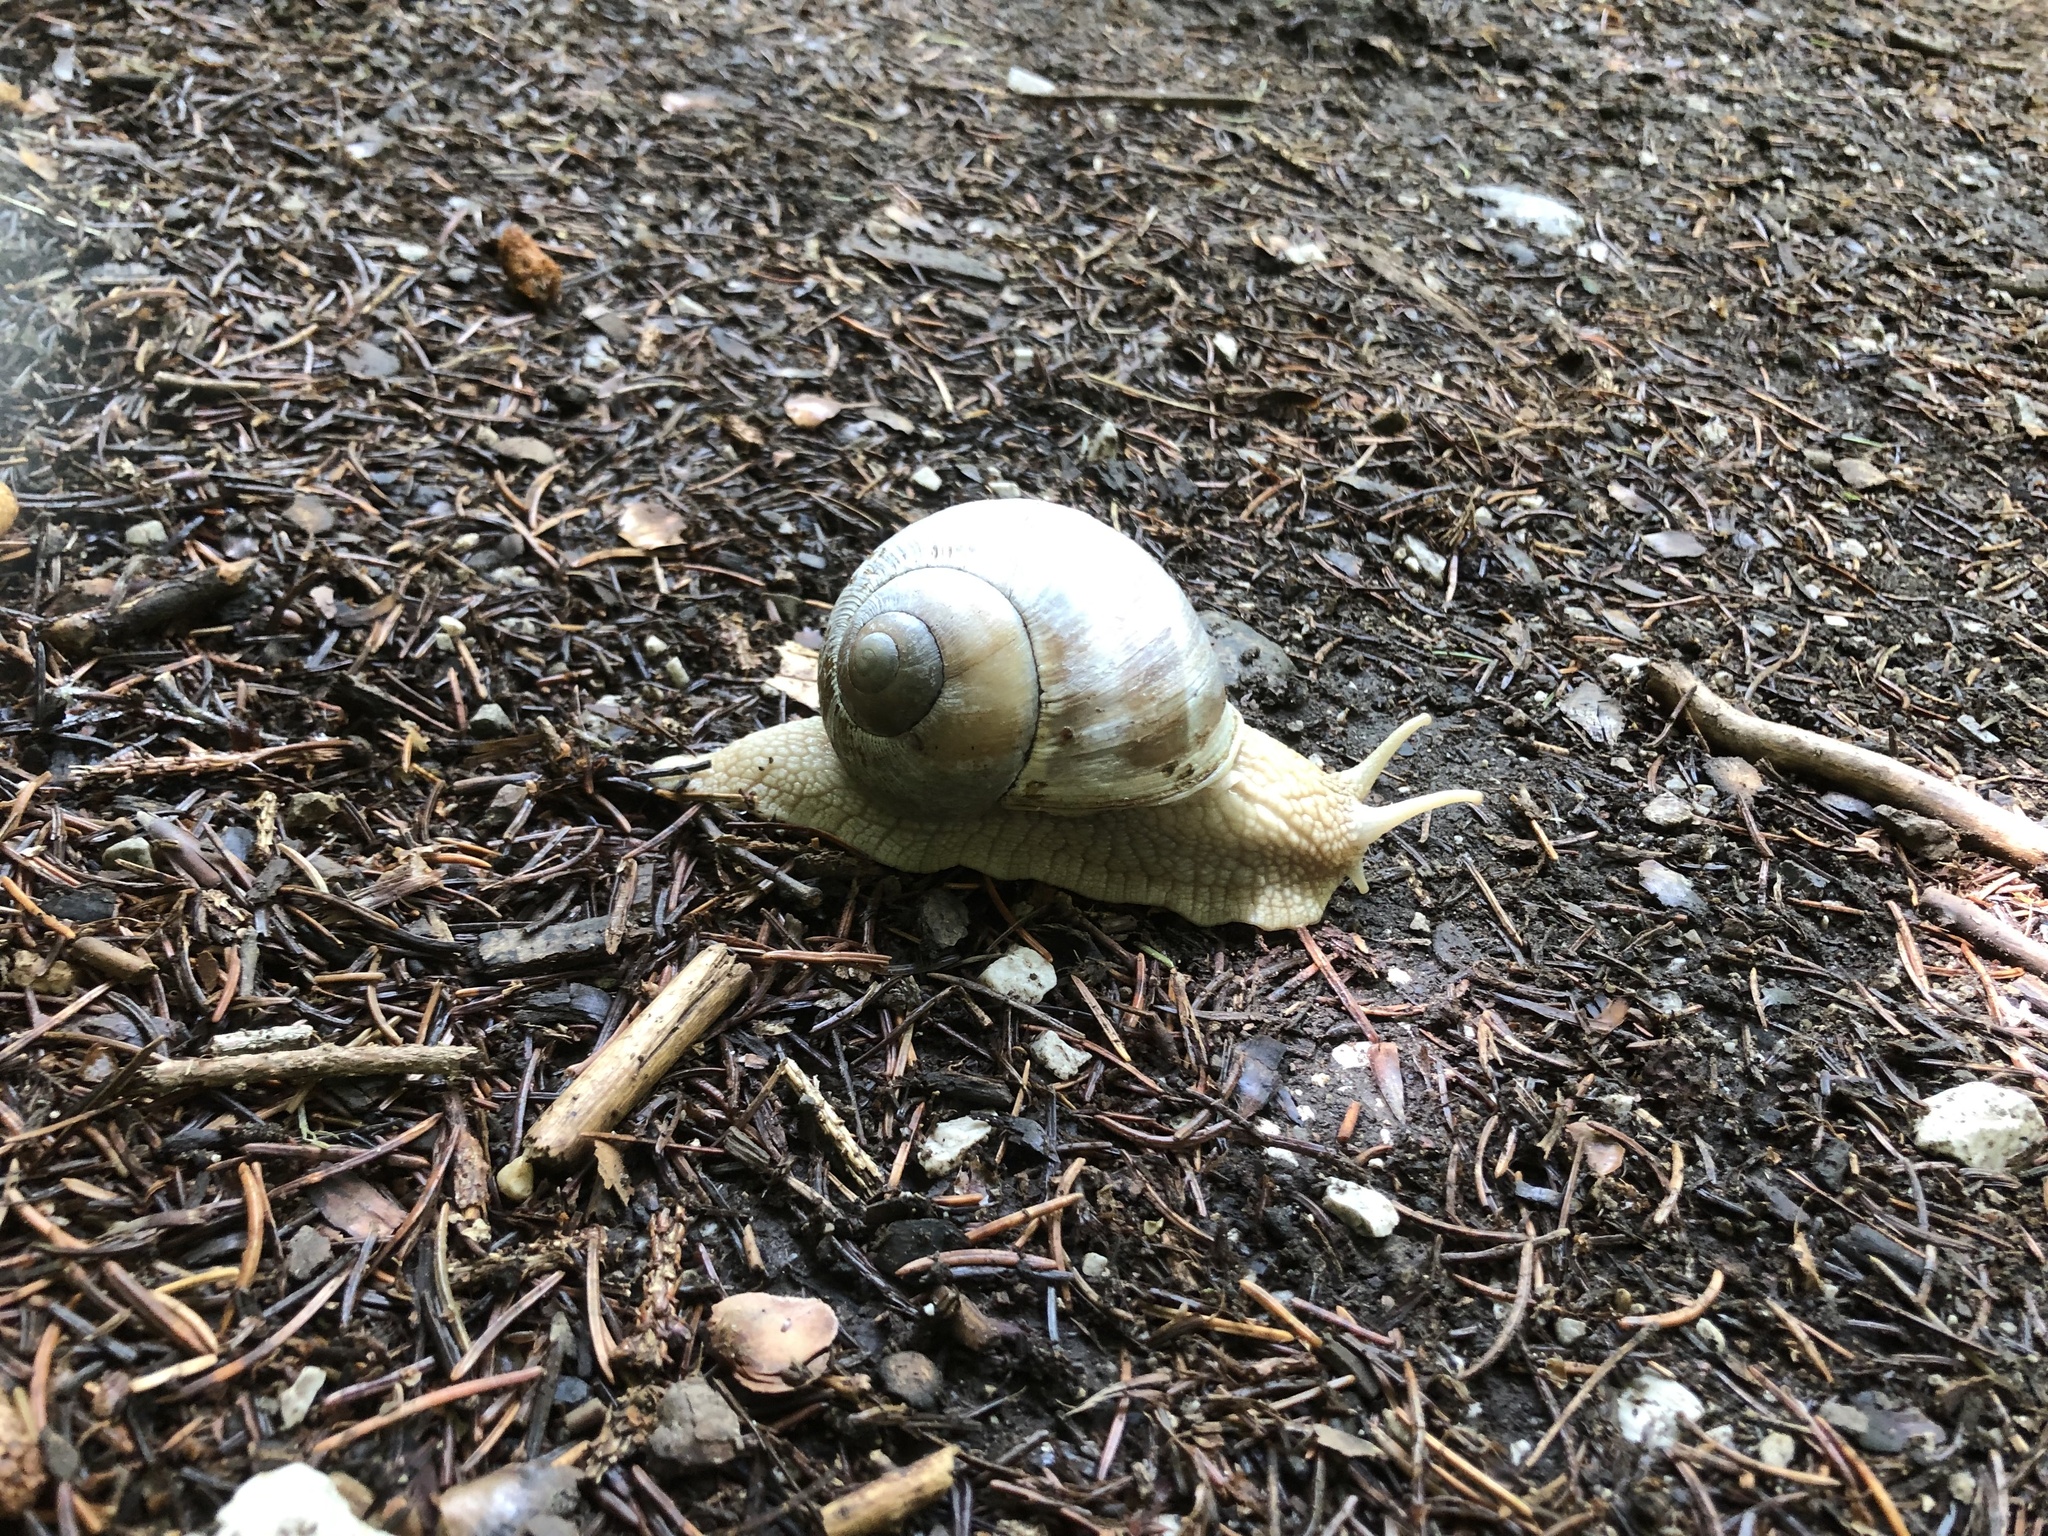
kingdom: Animalia
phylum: Mollusca
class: Gastropoda
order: Stylommatophora
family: Helicidae
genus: Helix
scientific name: Helix pomatia
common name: Roman snail
